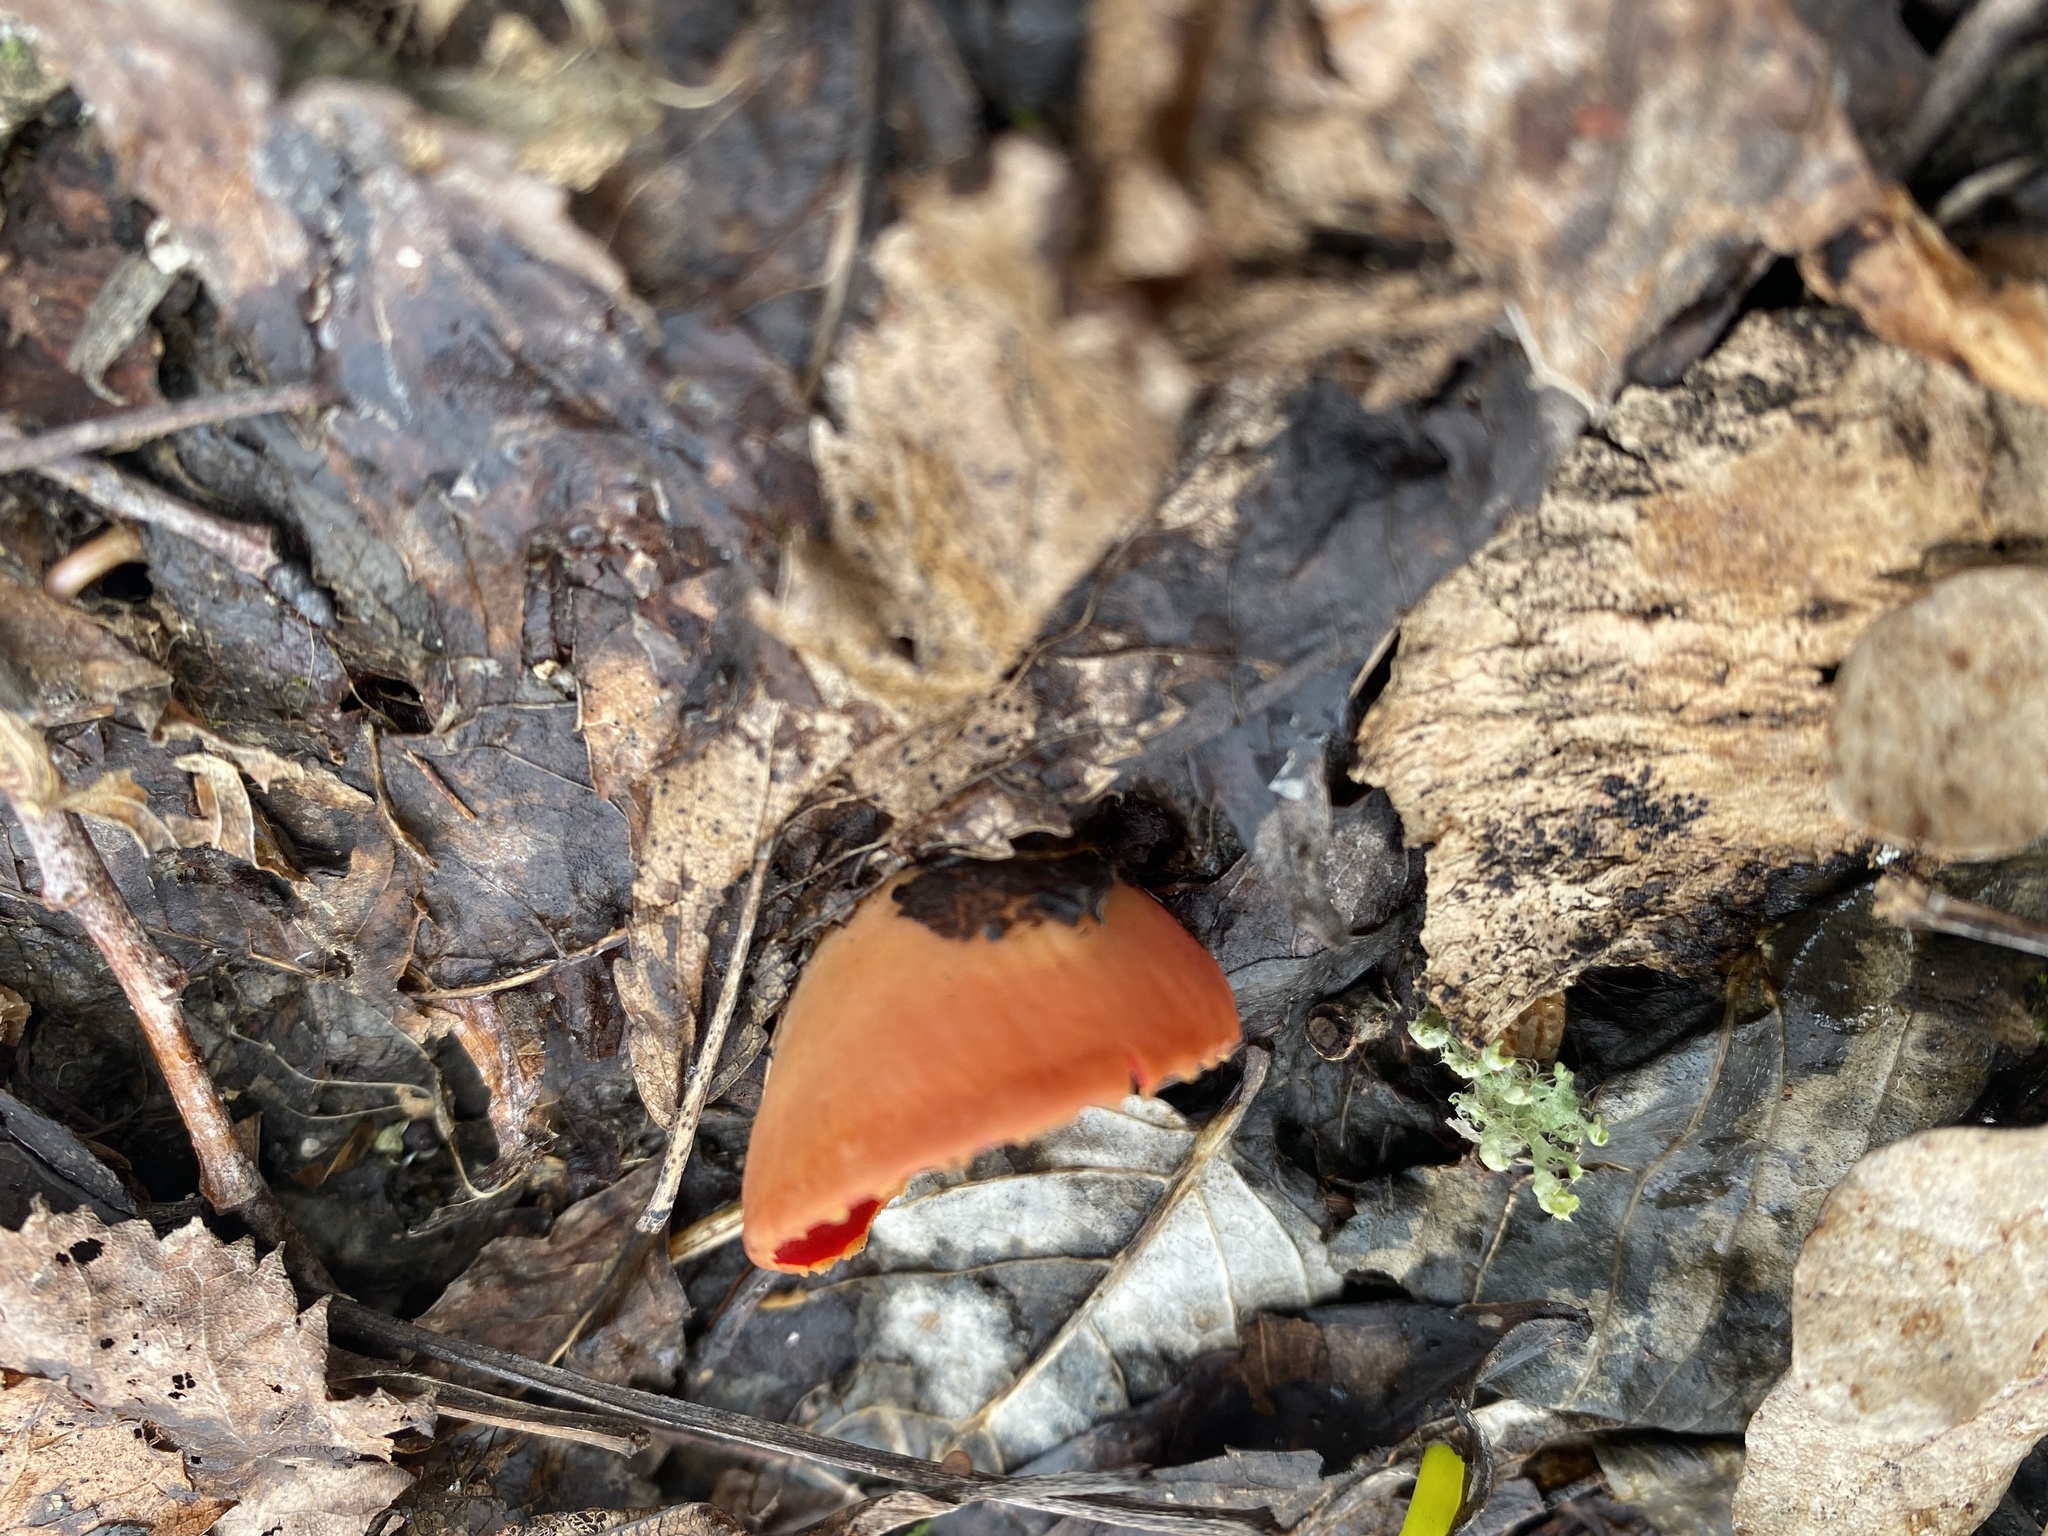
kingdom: Fungi
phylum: Ascomycota
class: Pezizomycetes
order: Pezizales
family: Sarcoscyphaceae
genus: Sarcoscypha
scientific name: Sarcoscypha
